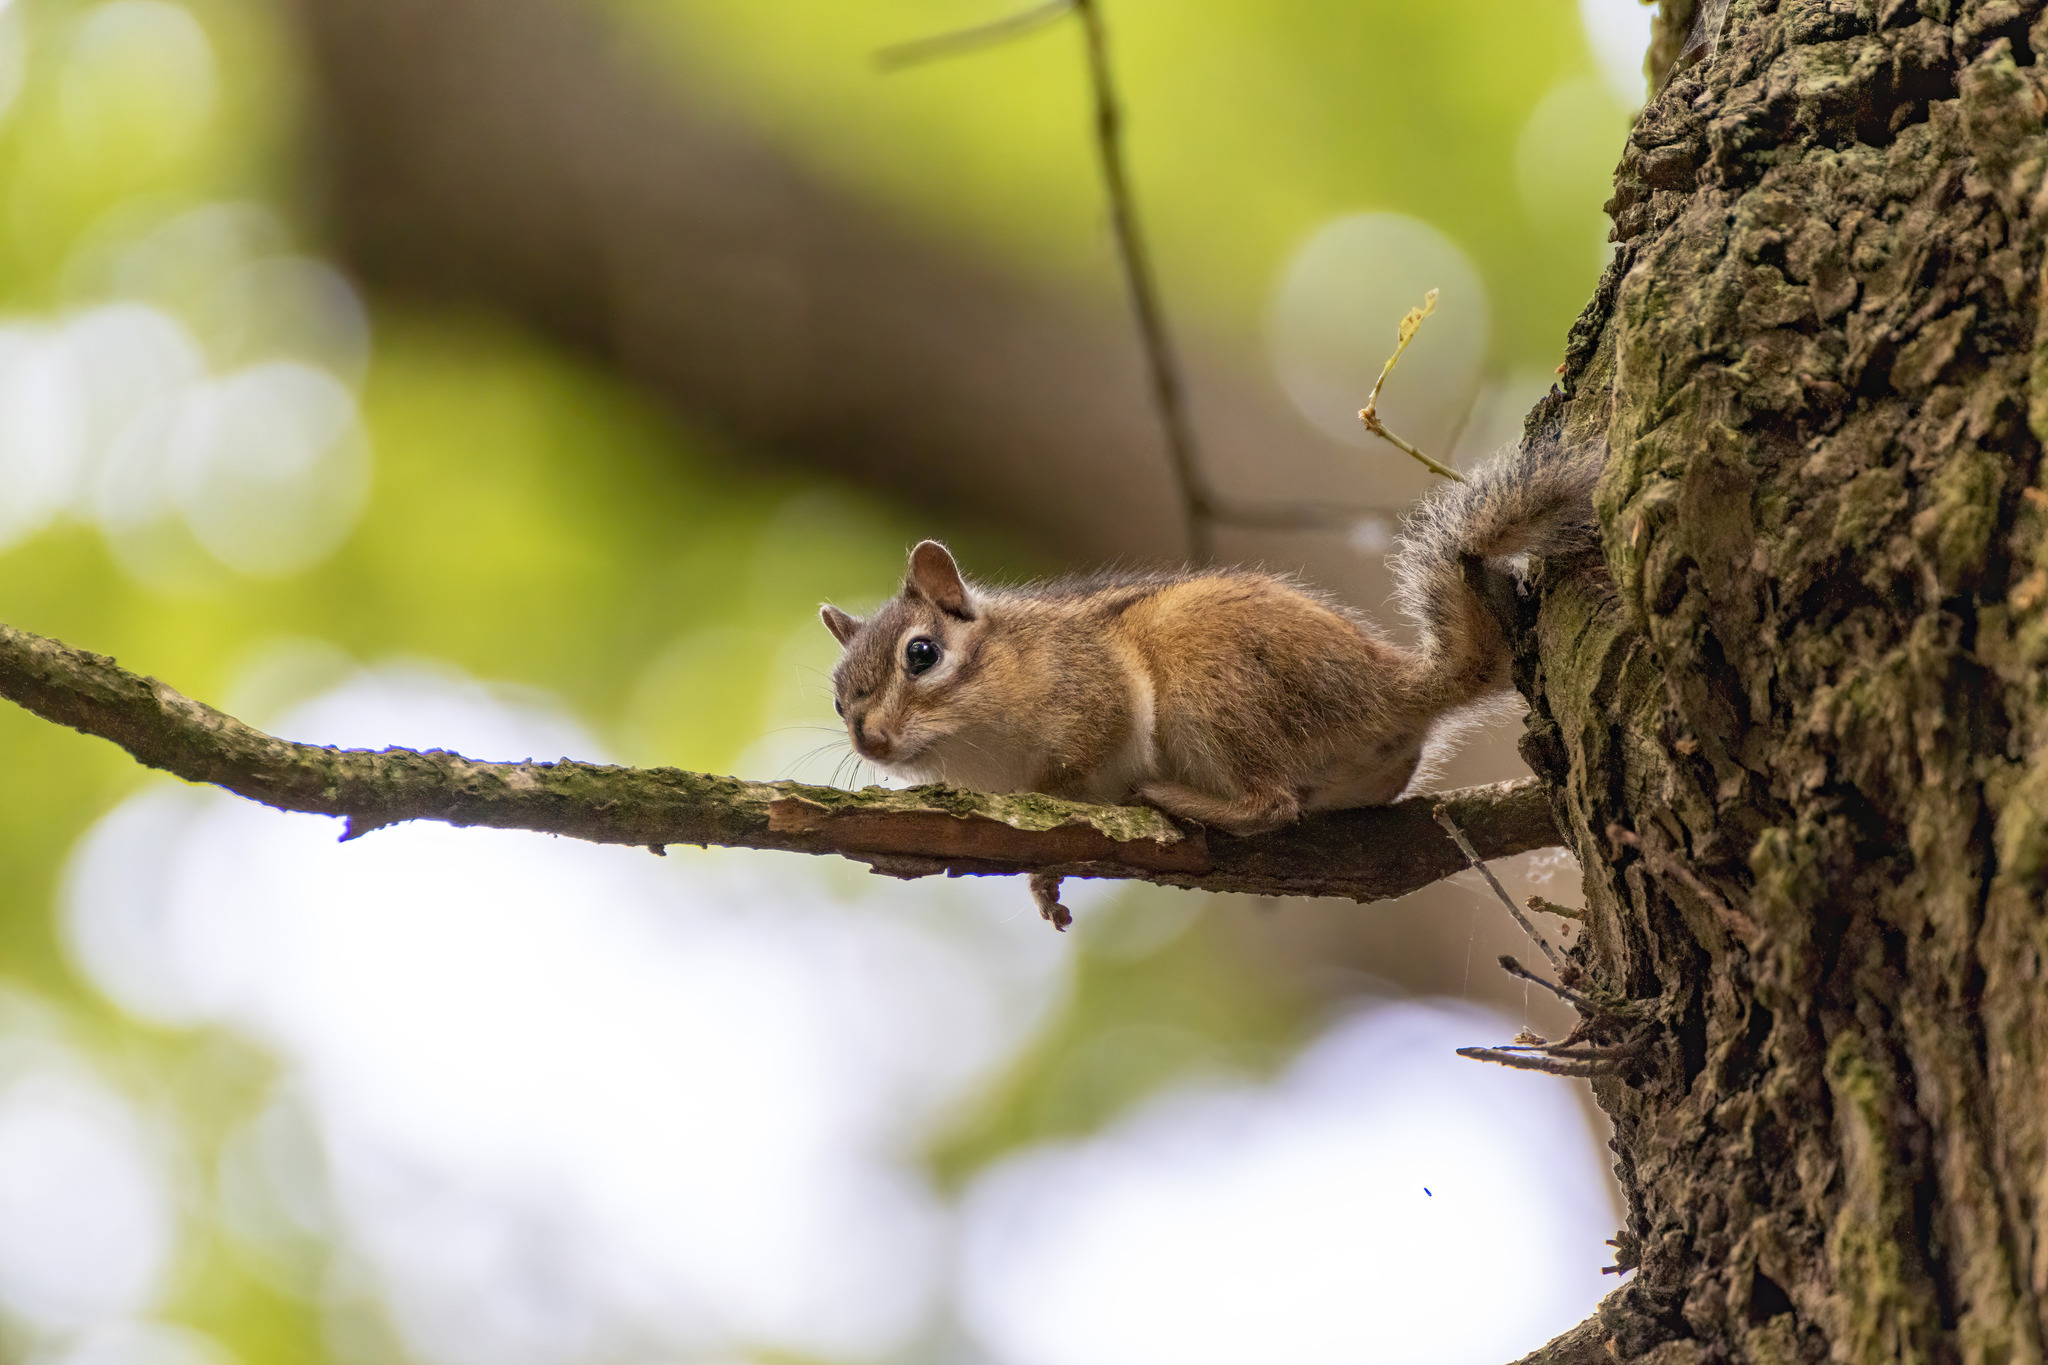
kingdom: Animalia
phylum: Chordata
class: Mammalia
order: Rodentia
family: Sciuridae
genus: Tamias
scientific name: Tamias sibiricus
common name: Siberian chipmunk
